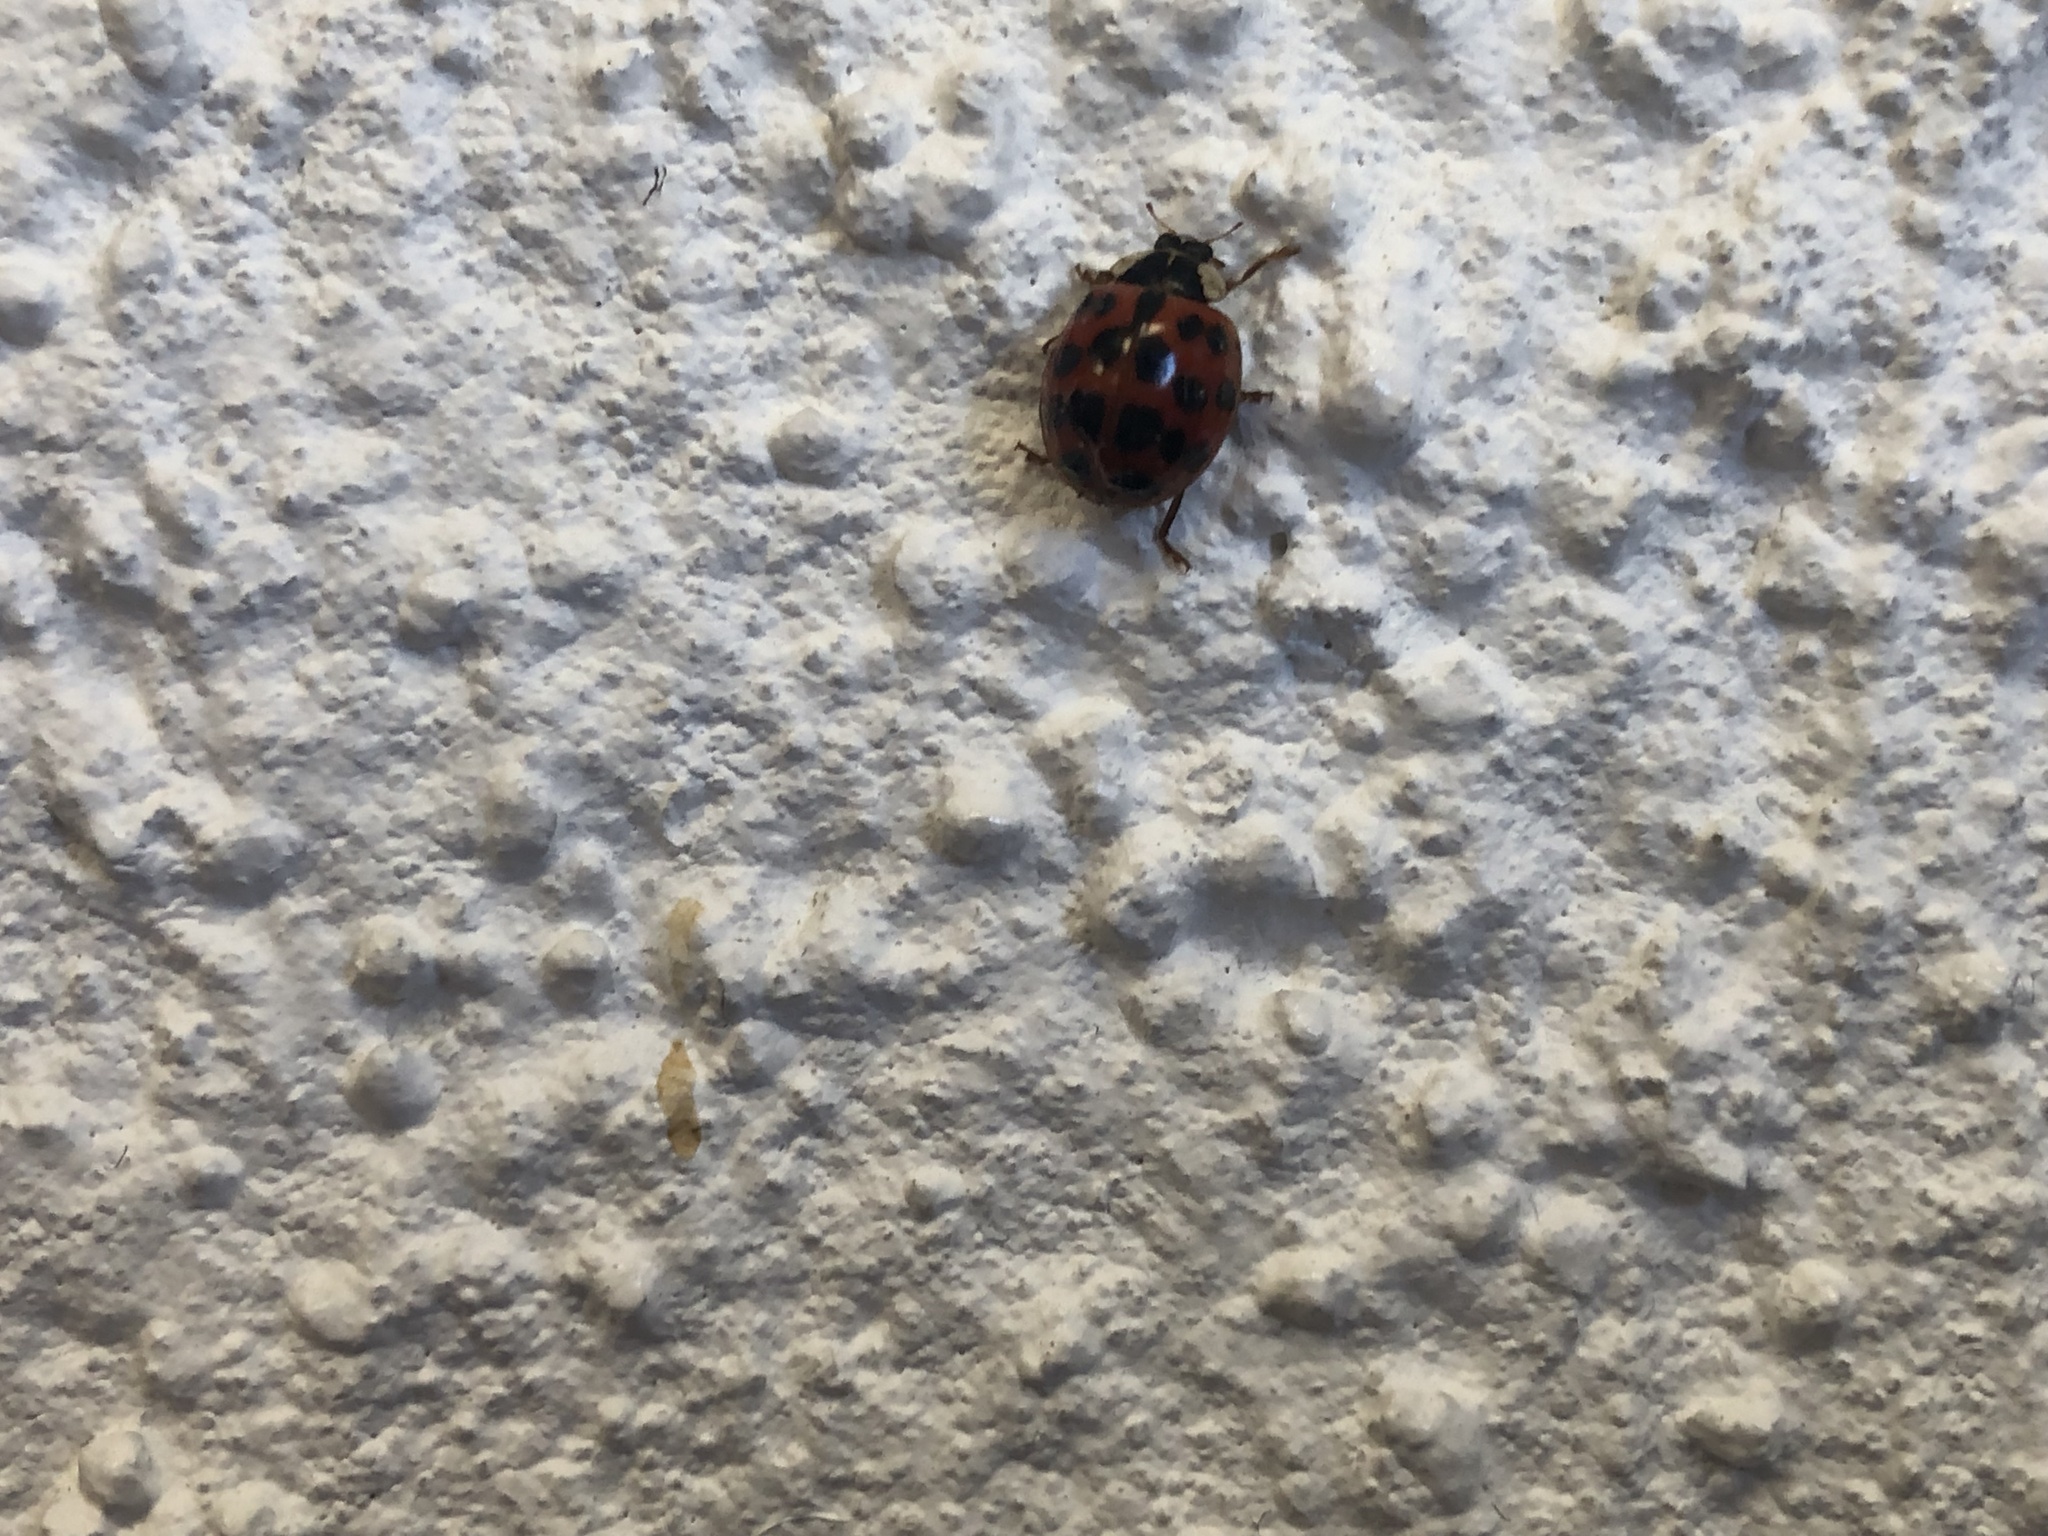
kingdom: Animalia
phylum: Arthropoda
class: Insecta
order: Coleoptera
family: Coccinellidae
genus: Harmonia
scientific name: Harmonia axyridis
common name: Harlequin ladybird
